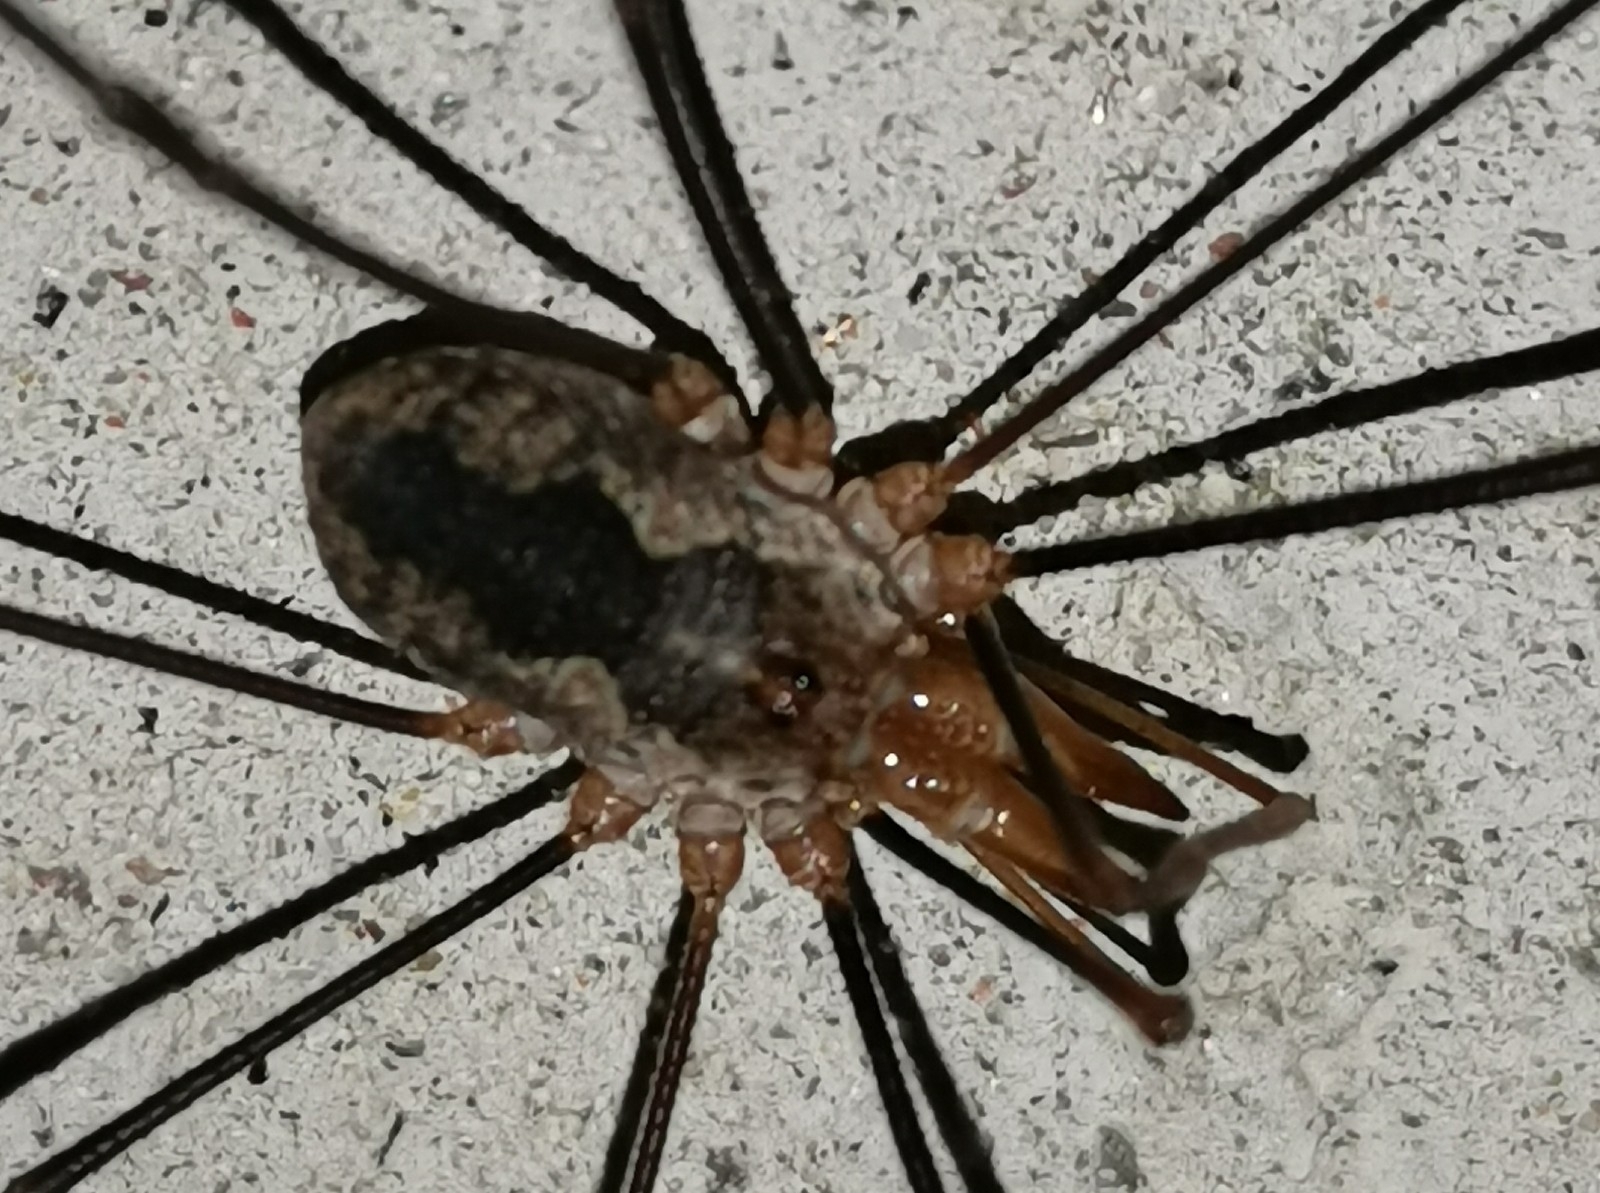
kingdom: Animalia
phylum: Arthropoda
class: Arachnida
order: Opiliones
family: Phalangiidae
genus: Phalangium
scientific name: Phalangium opilio
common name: Daddy longleg
